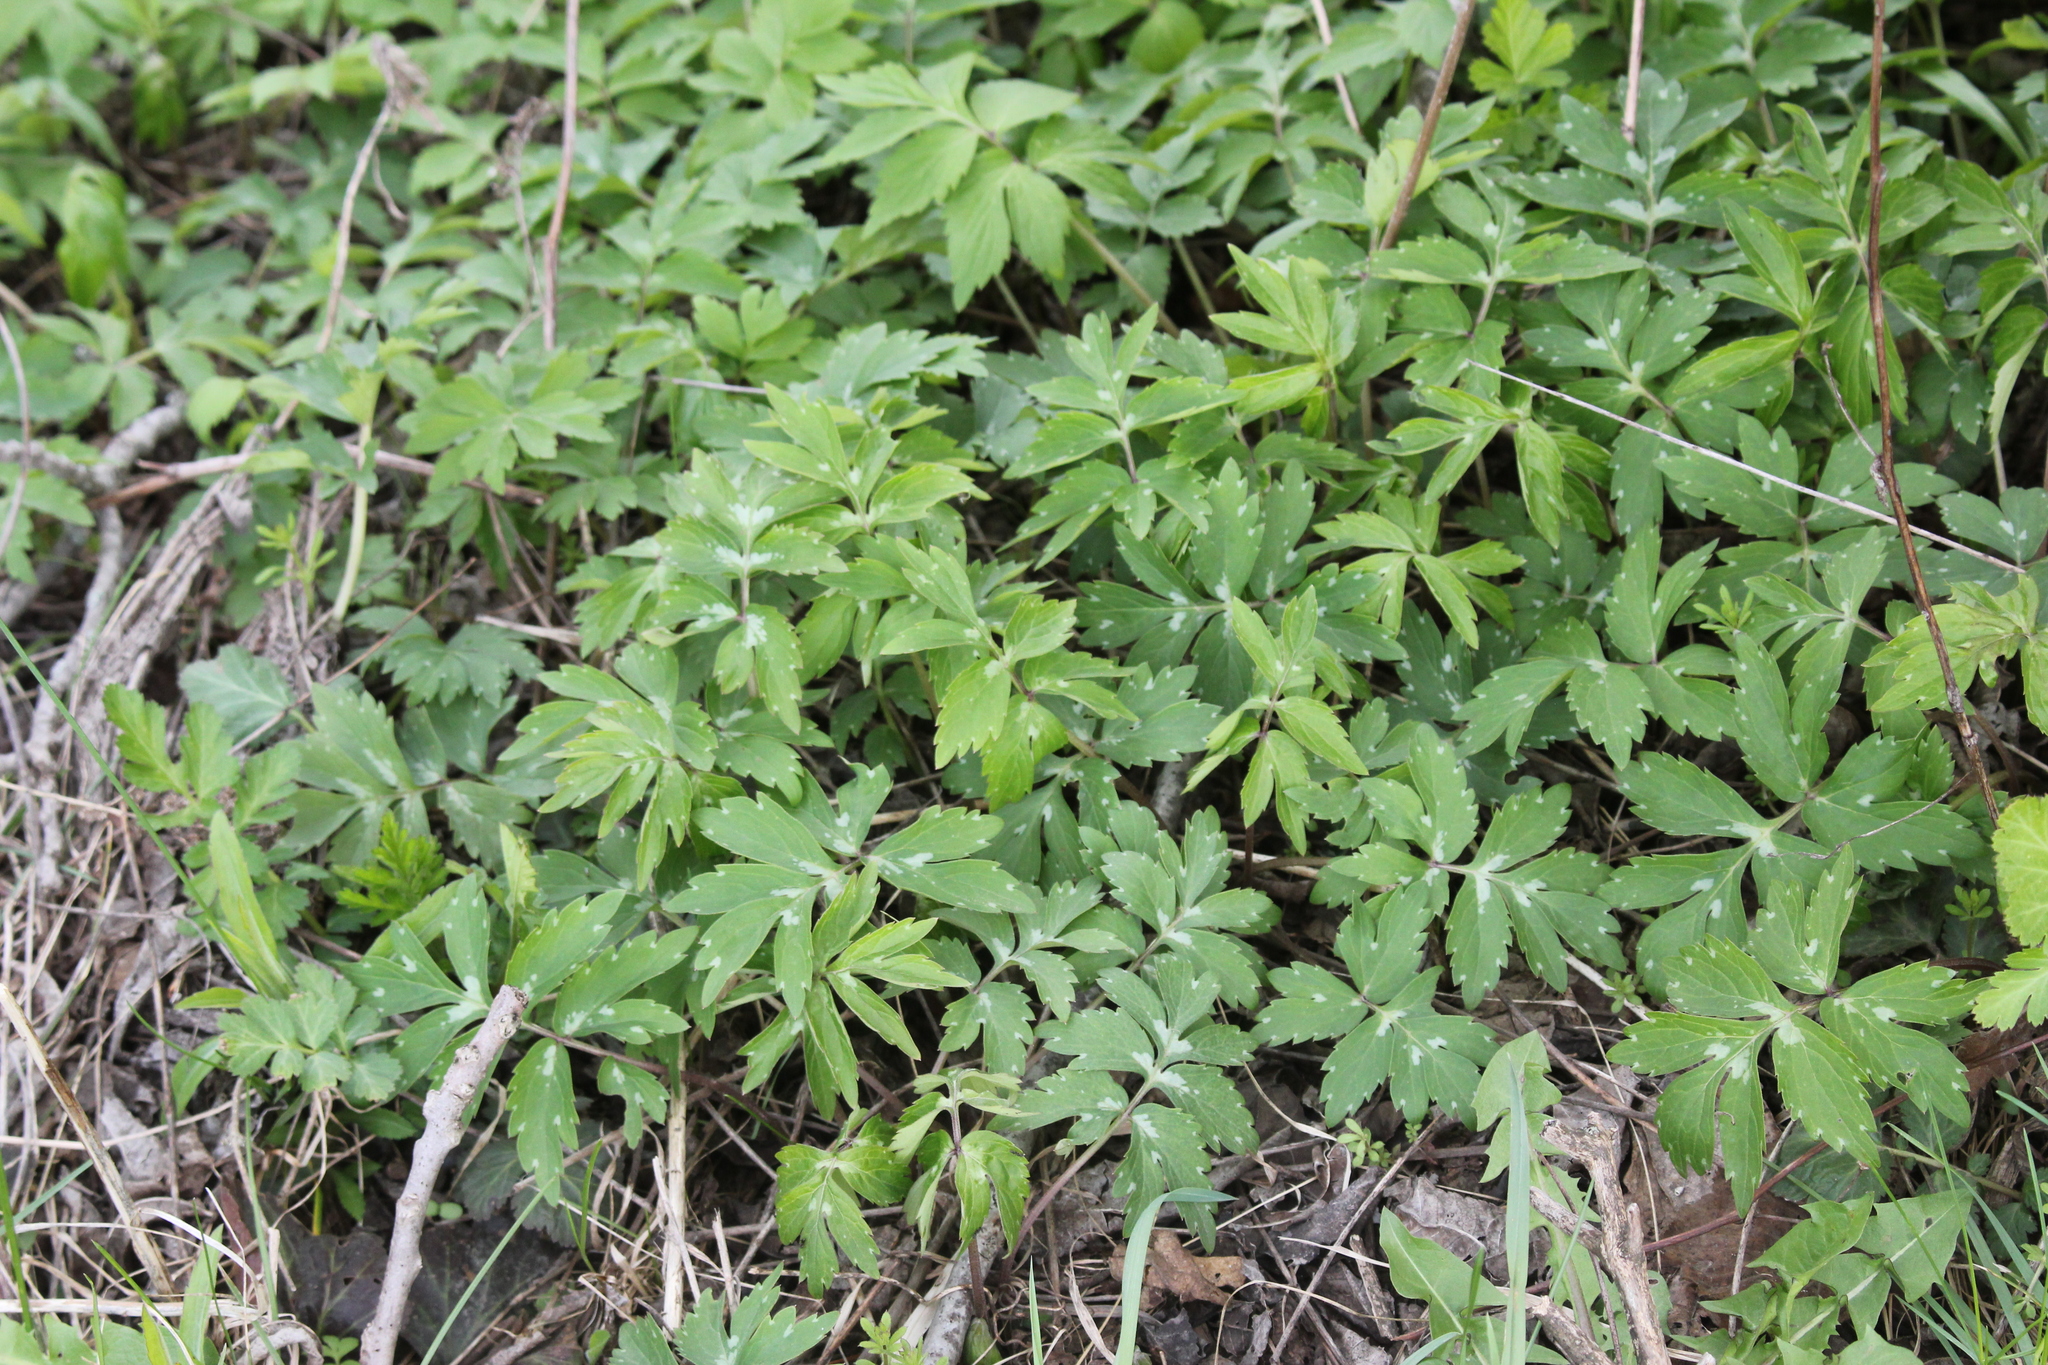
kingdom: Plantae
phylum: Tracheophyta
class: Magnoliopsida
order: Boraginales
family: Hydrophyllaceae
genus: Hydrophyllum
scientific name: Hydrophyllum virginianum
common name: Virginia waterleaf
